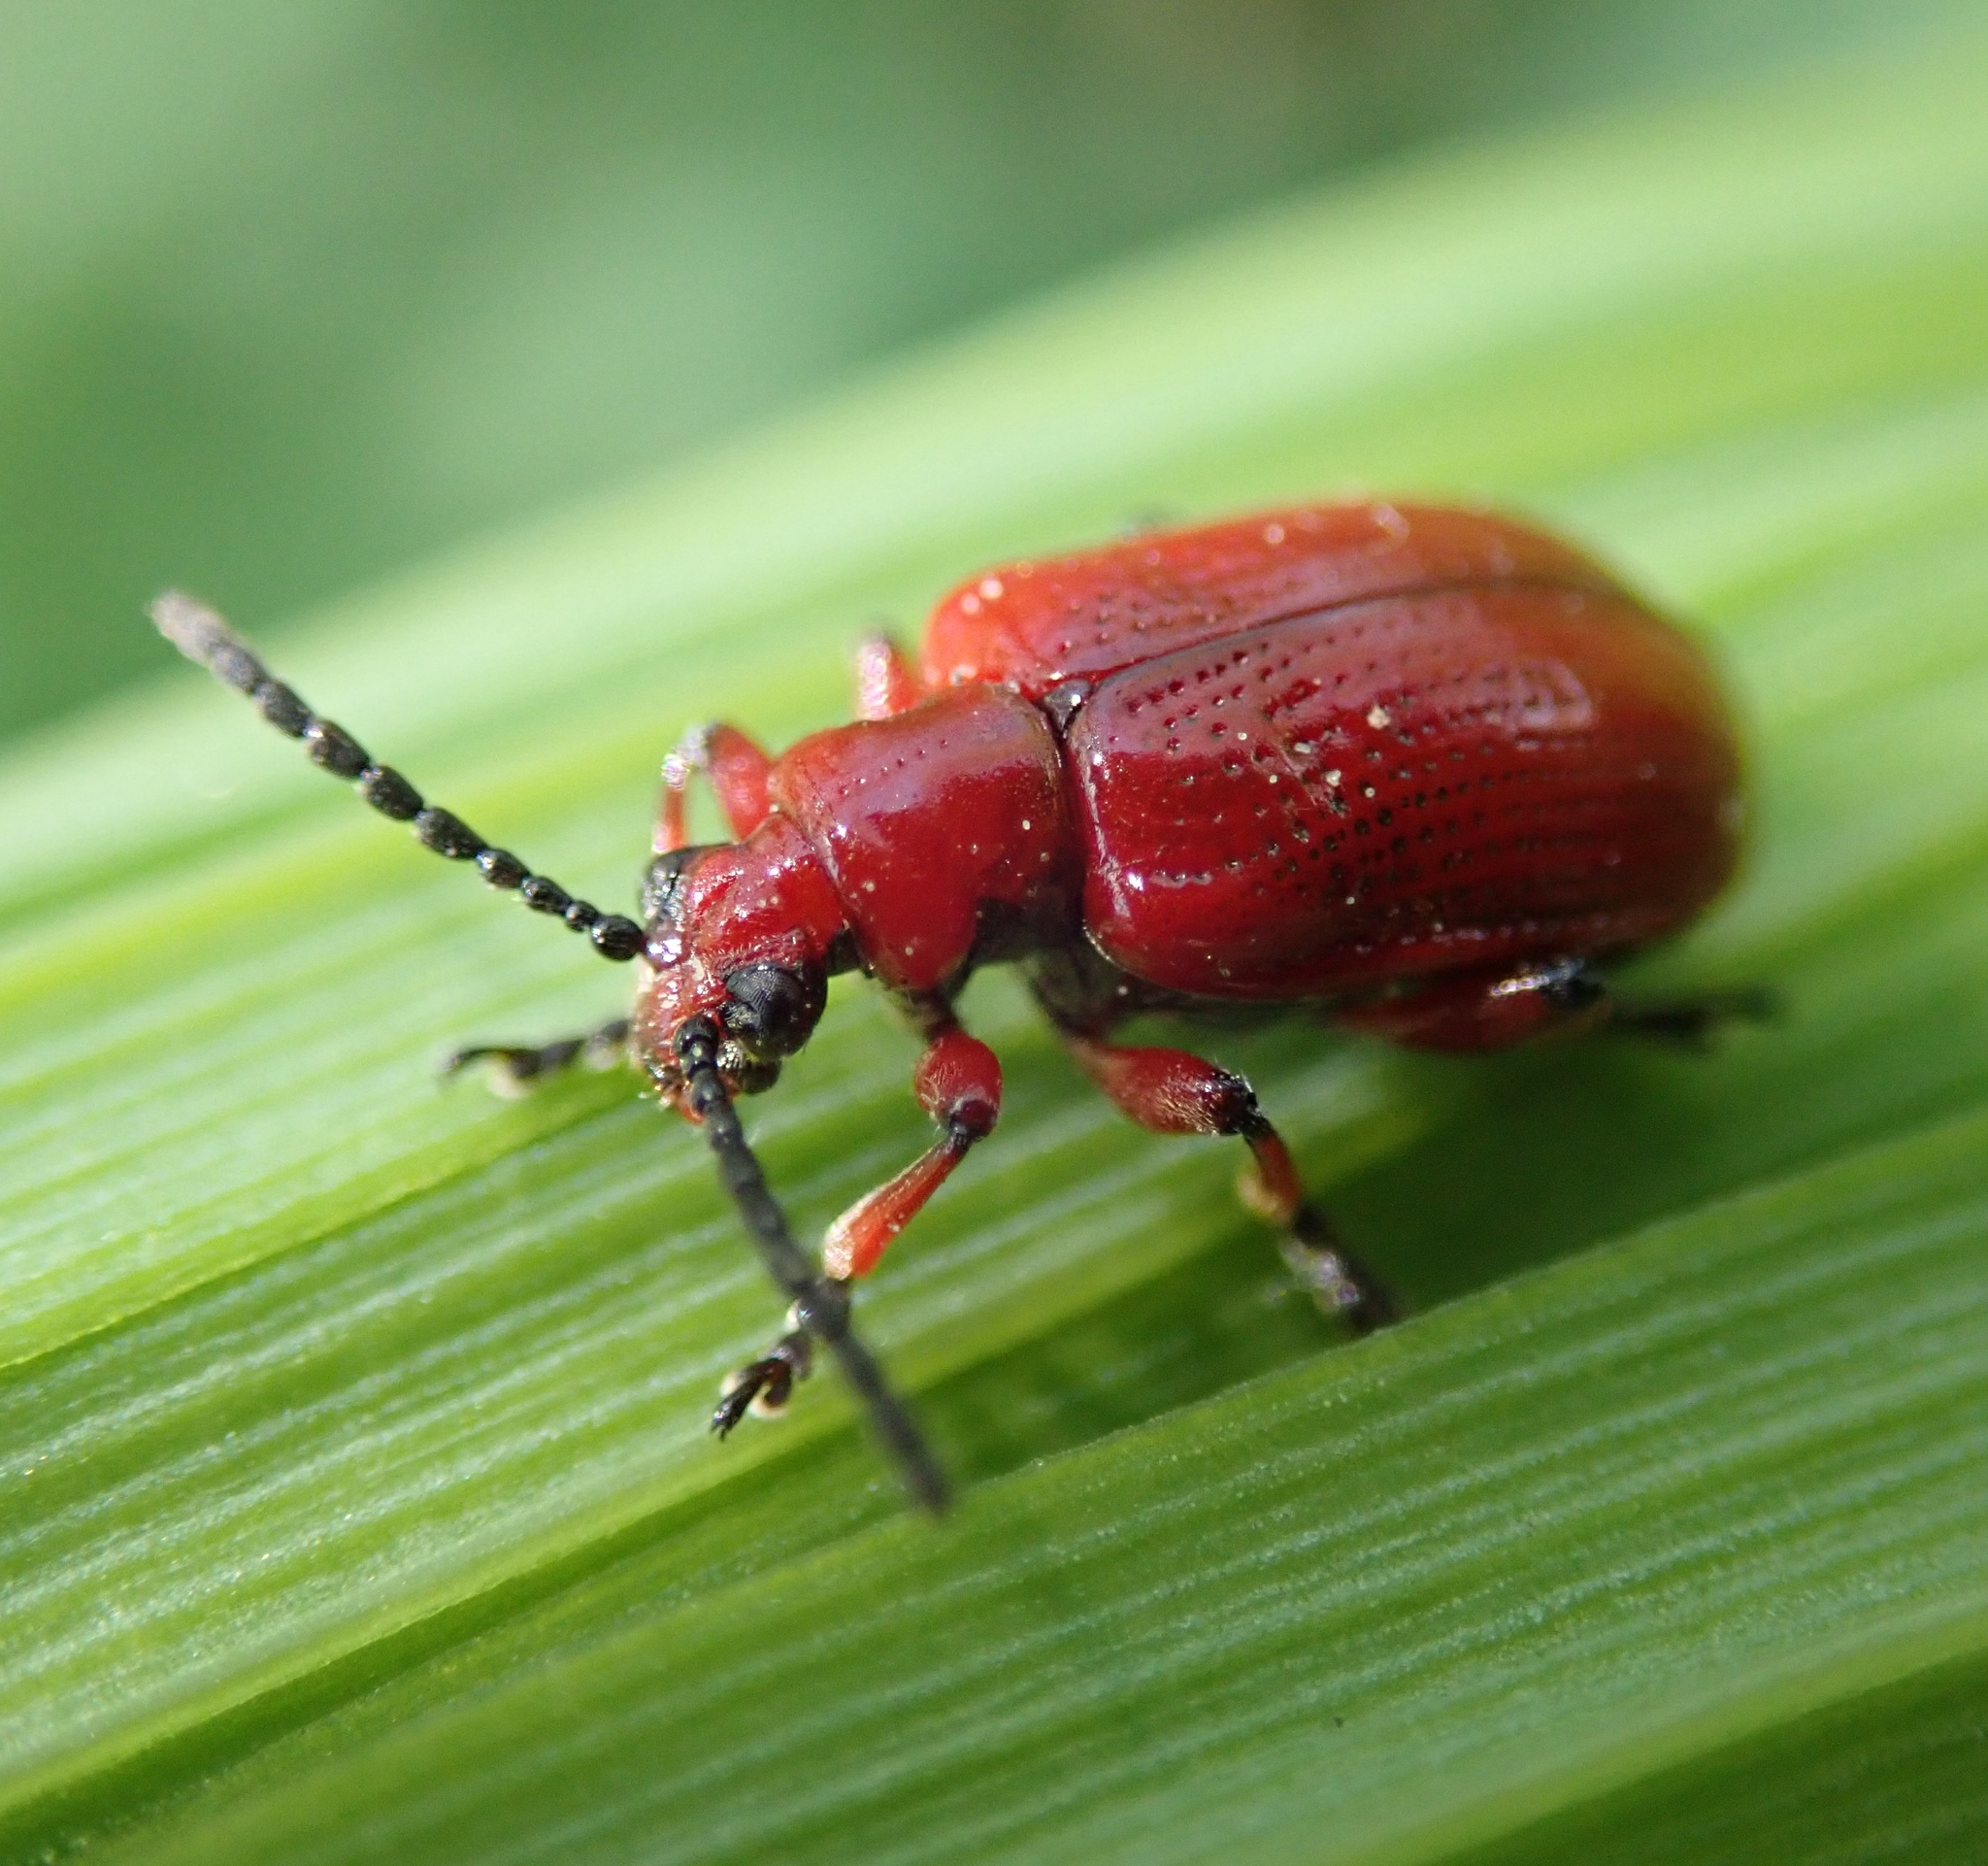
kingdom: Animalia
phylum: Arthropoda
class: Insecta
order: Coleoptera
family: Chrysomelidae
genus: Lilioceris
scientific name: Lilioceris merdigera
